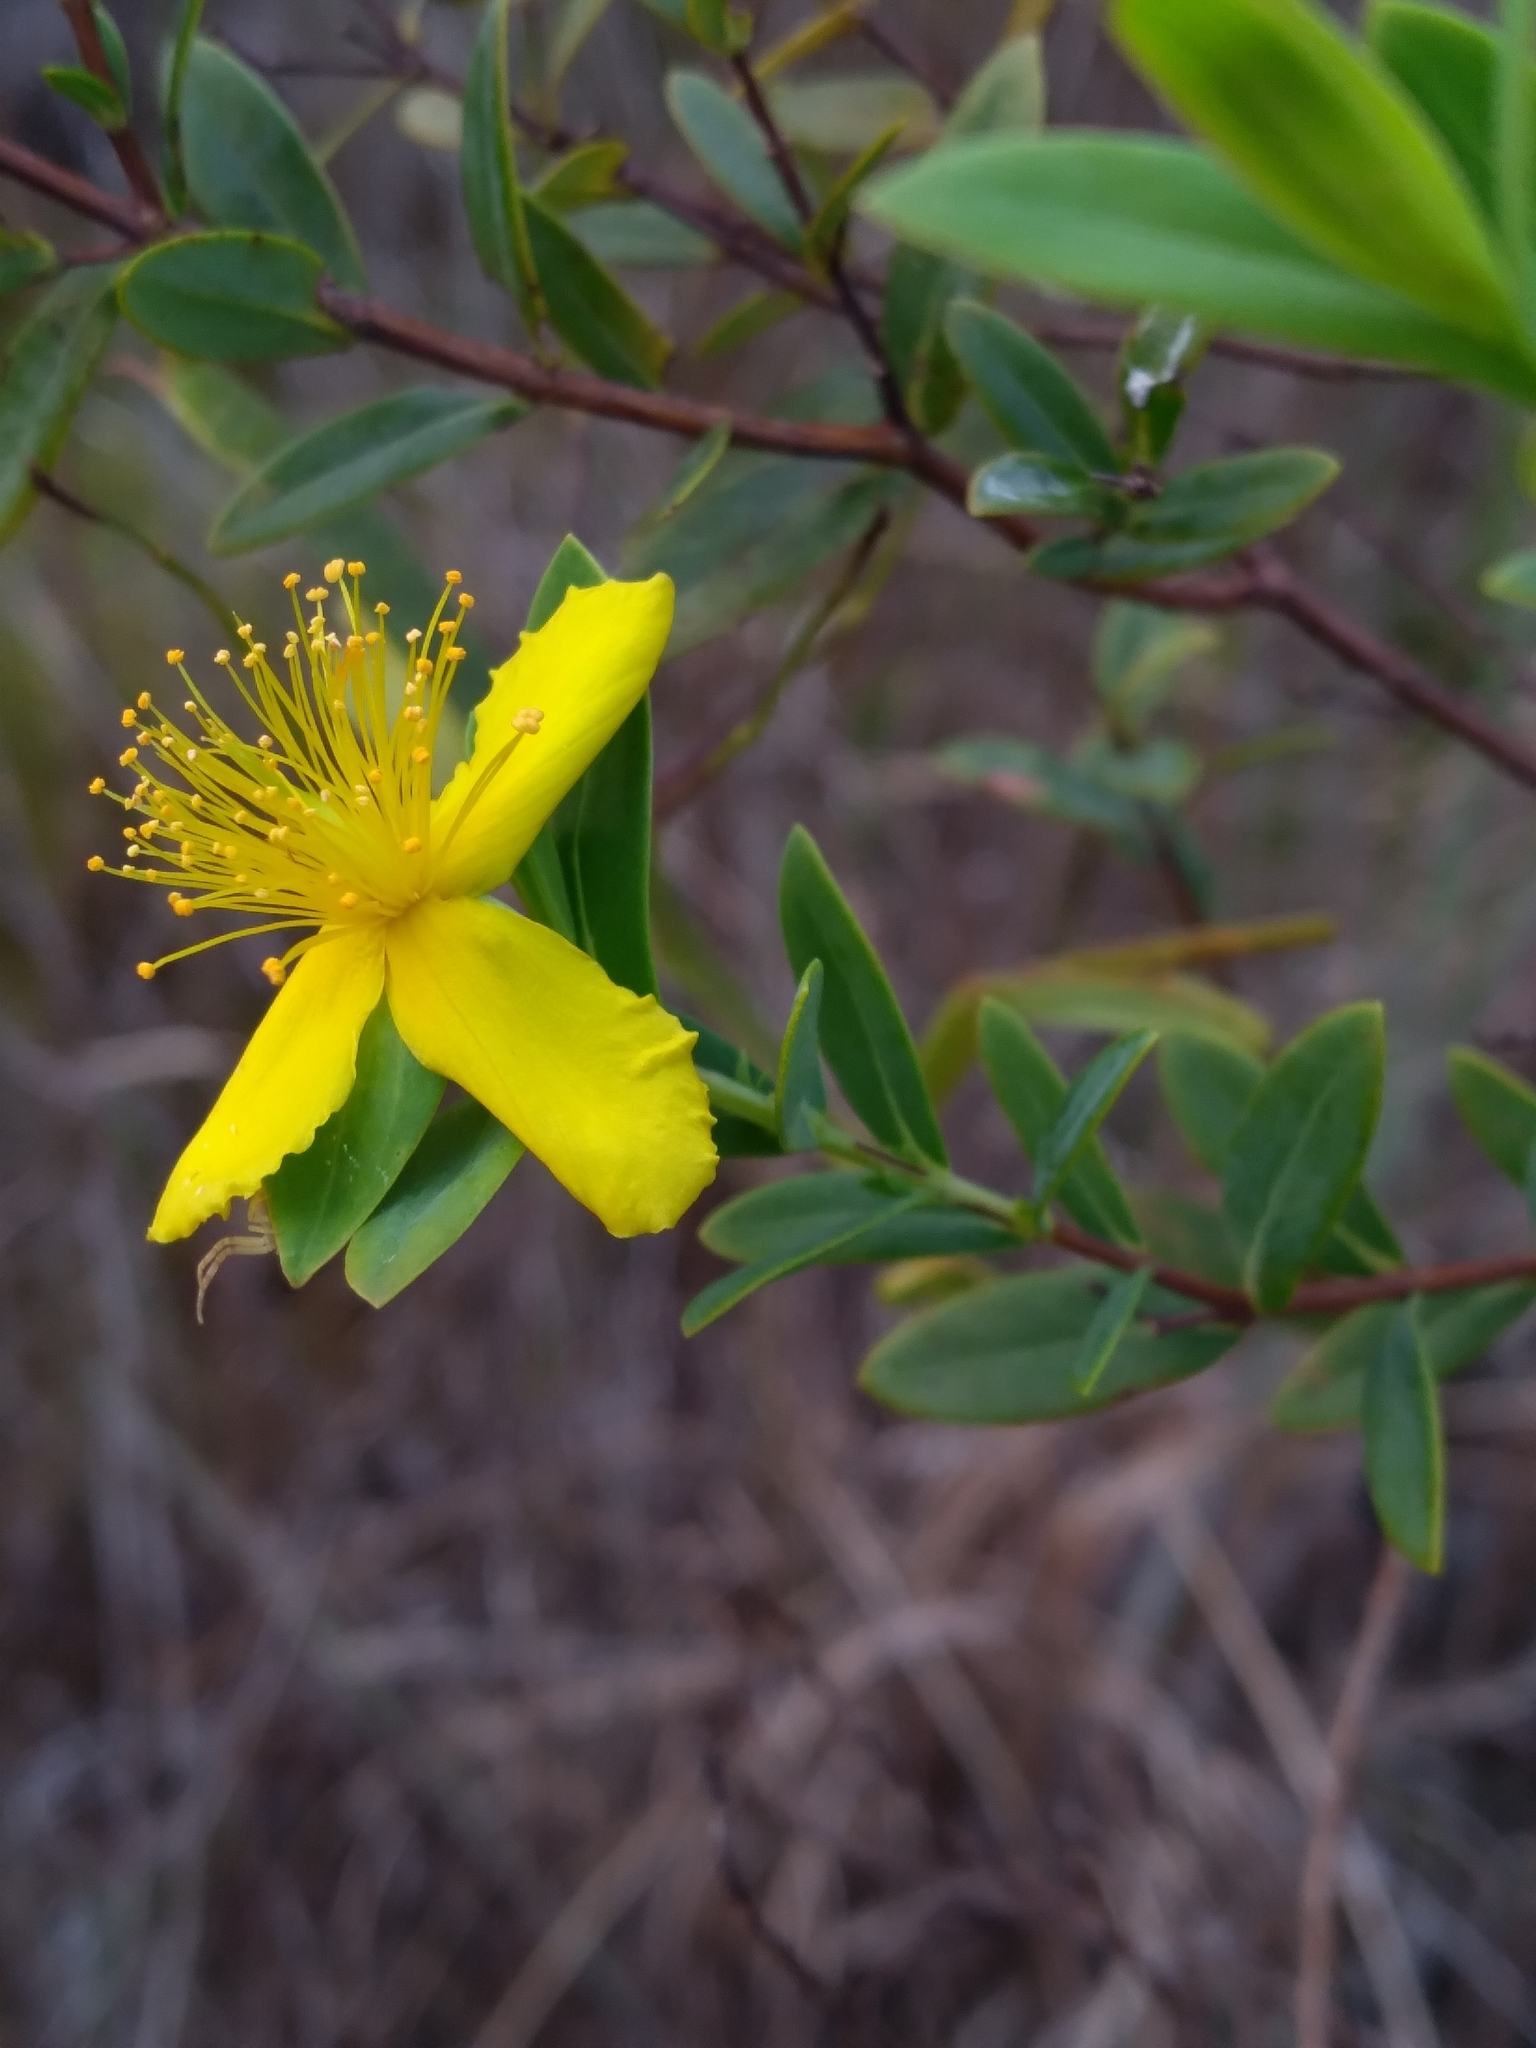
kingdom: Plantae
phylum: Tracheophyta
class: Magnoliopsida
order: Malpighiales
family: Hypericaceae
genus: Hypericum
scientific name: Hypericum edisonianum
